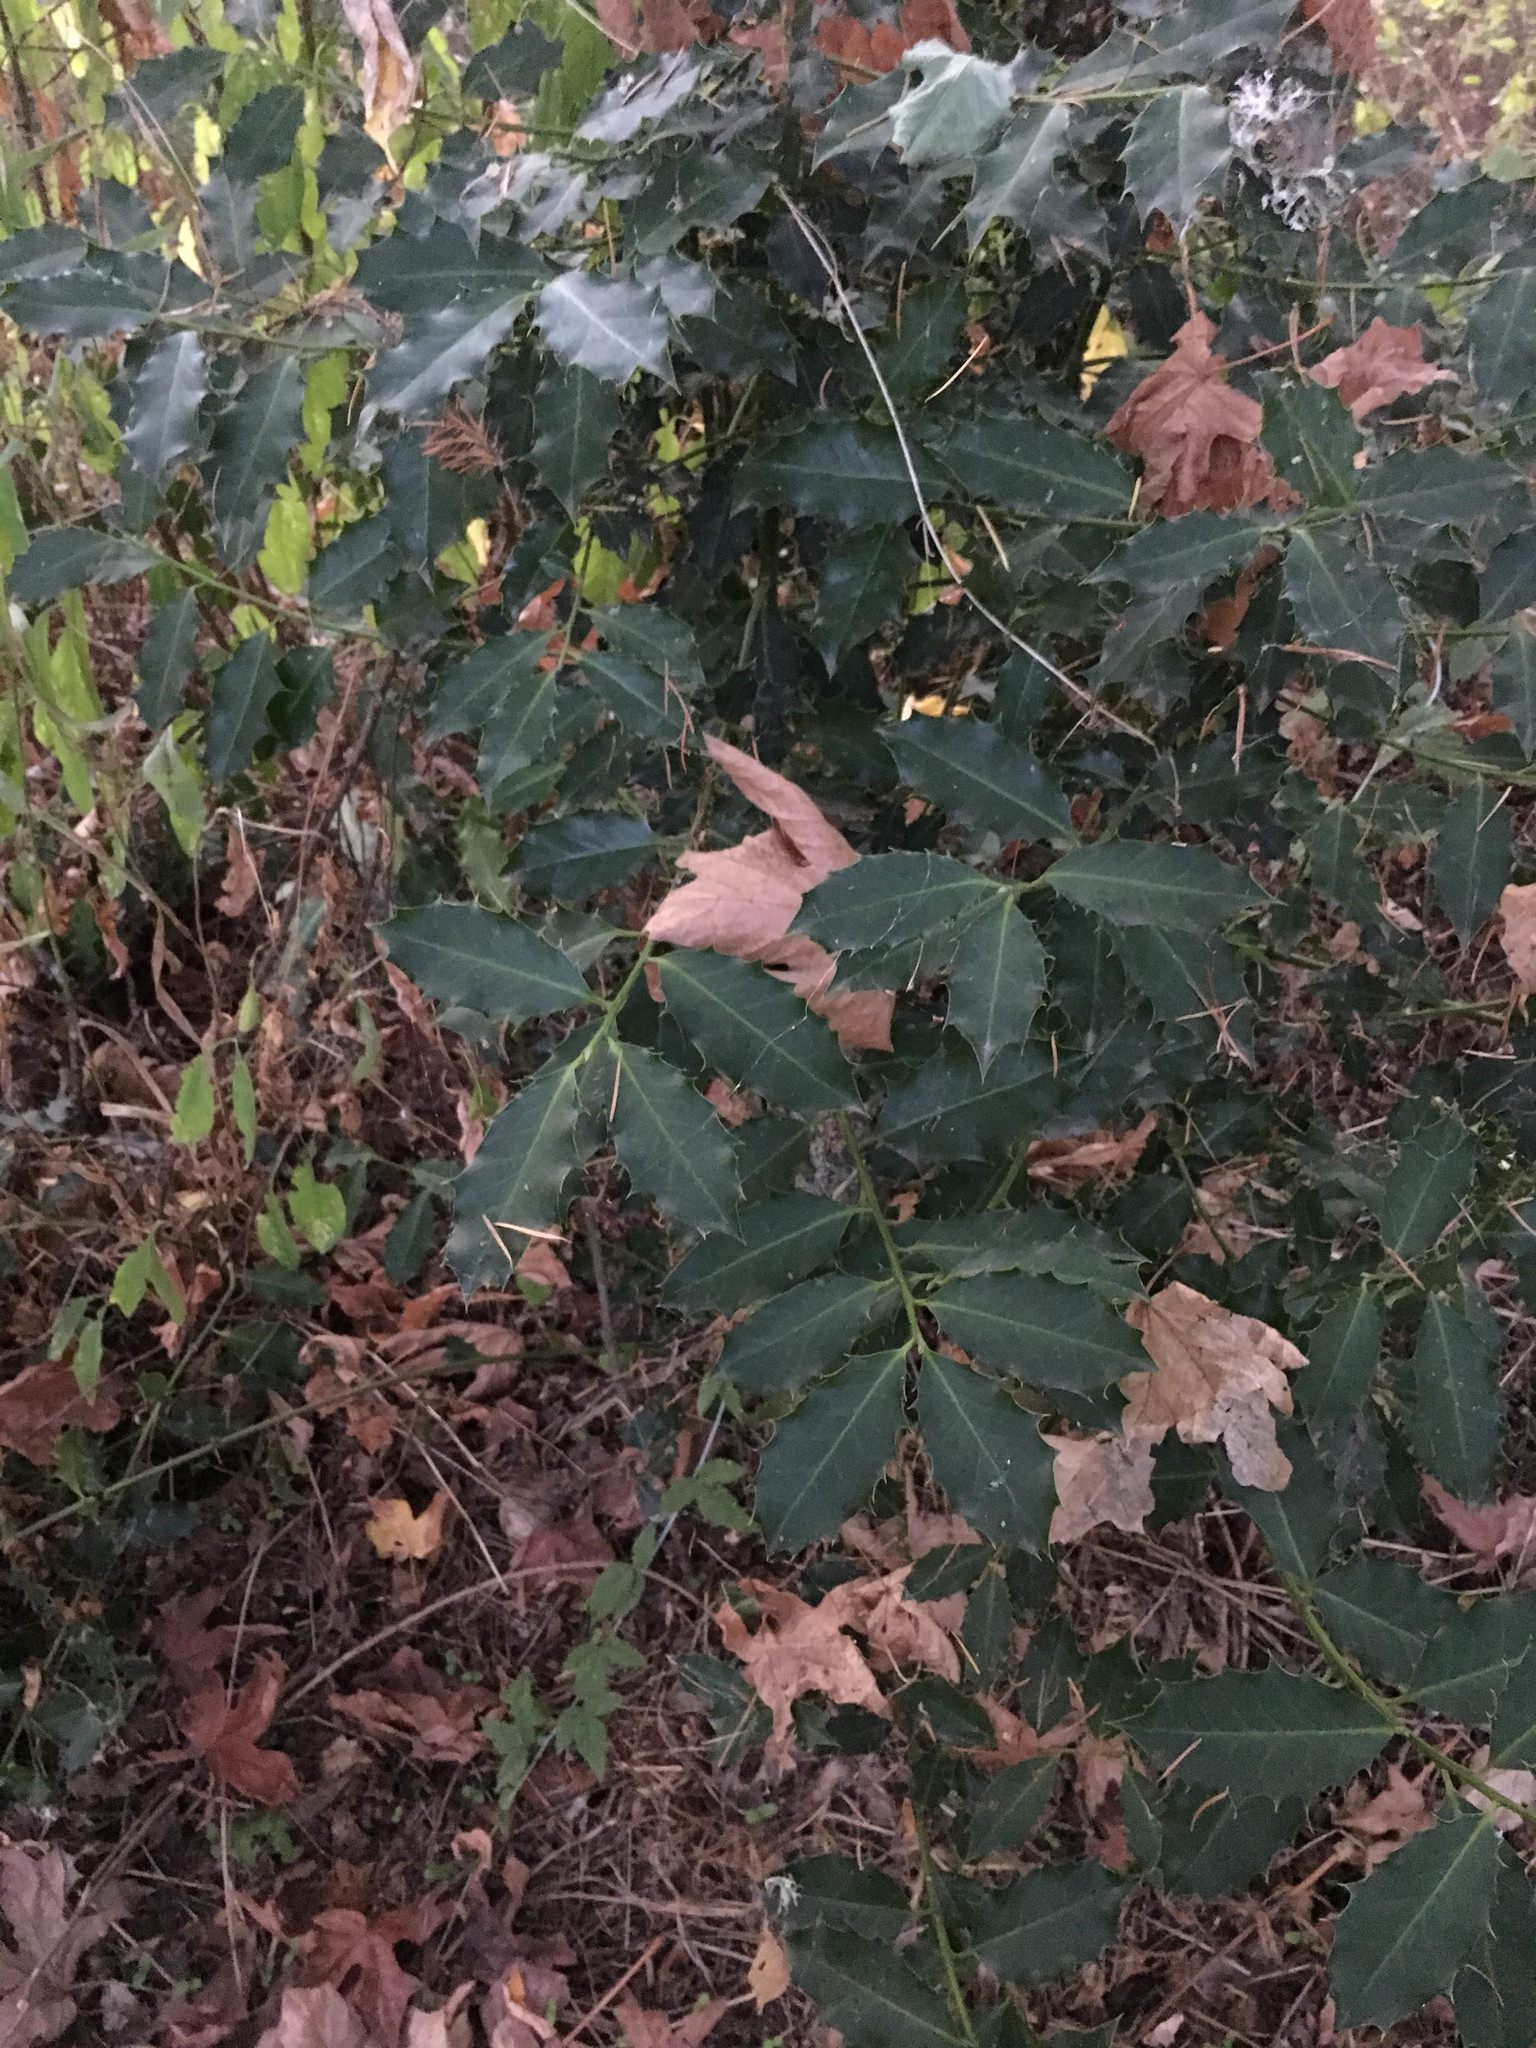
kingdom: Plantae
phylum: Tracheophyta
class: Magnoliopsida
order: Aquifoliales
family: Aquifoliaceae
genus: Ilex
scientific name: Ilex aquifolium
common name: English holly
